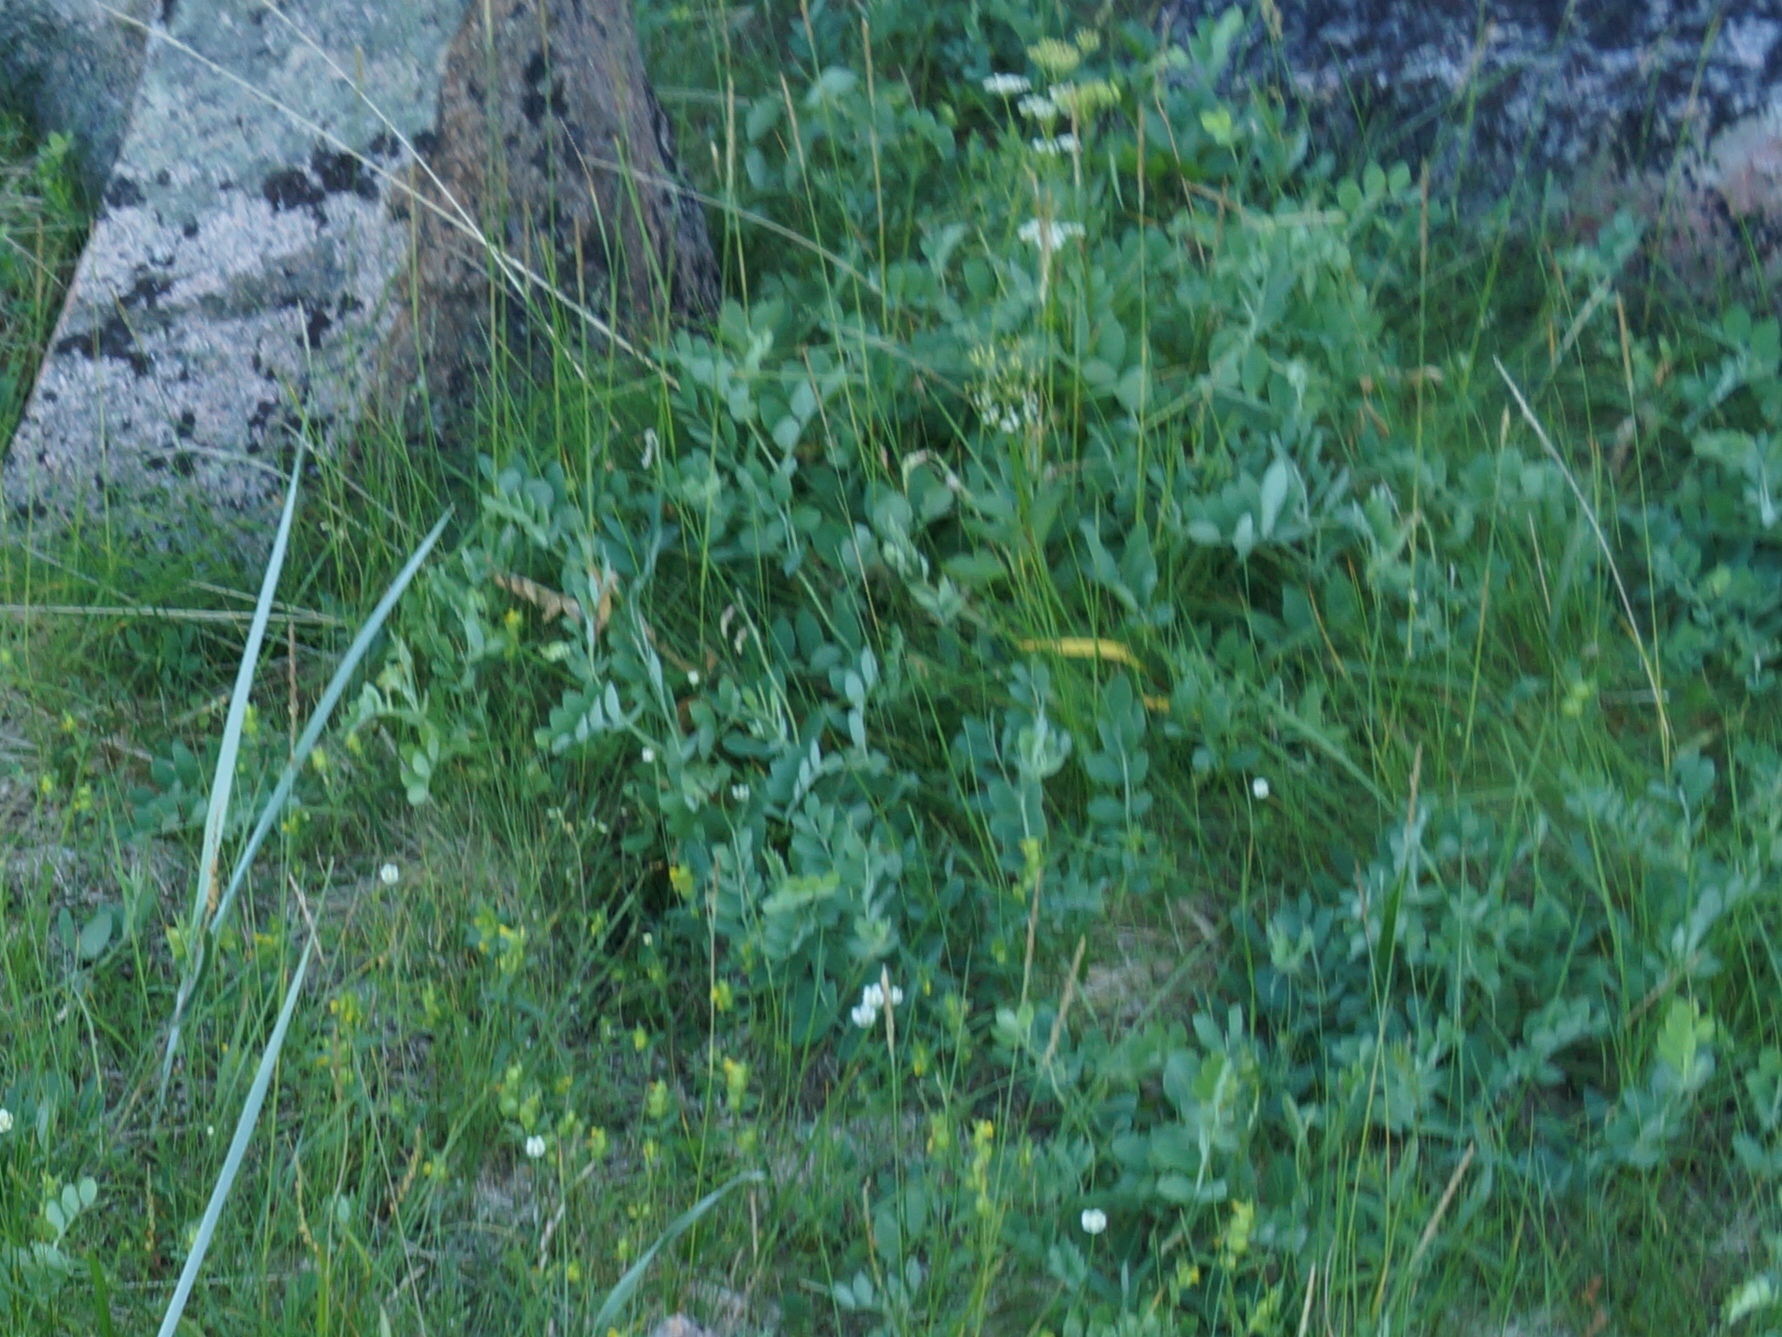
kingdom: Plantae
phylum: Tracheophyta
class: Magnoliopsida
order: Fabales
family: Fabaceae
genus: Lathyrus
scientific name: Lathyrus japonicus
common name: Sea pea
